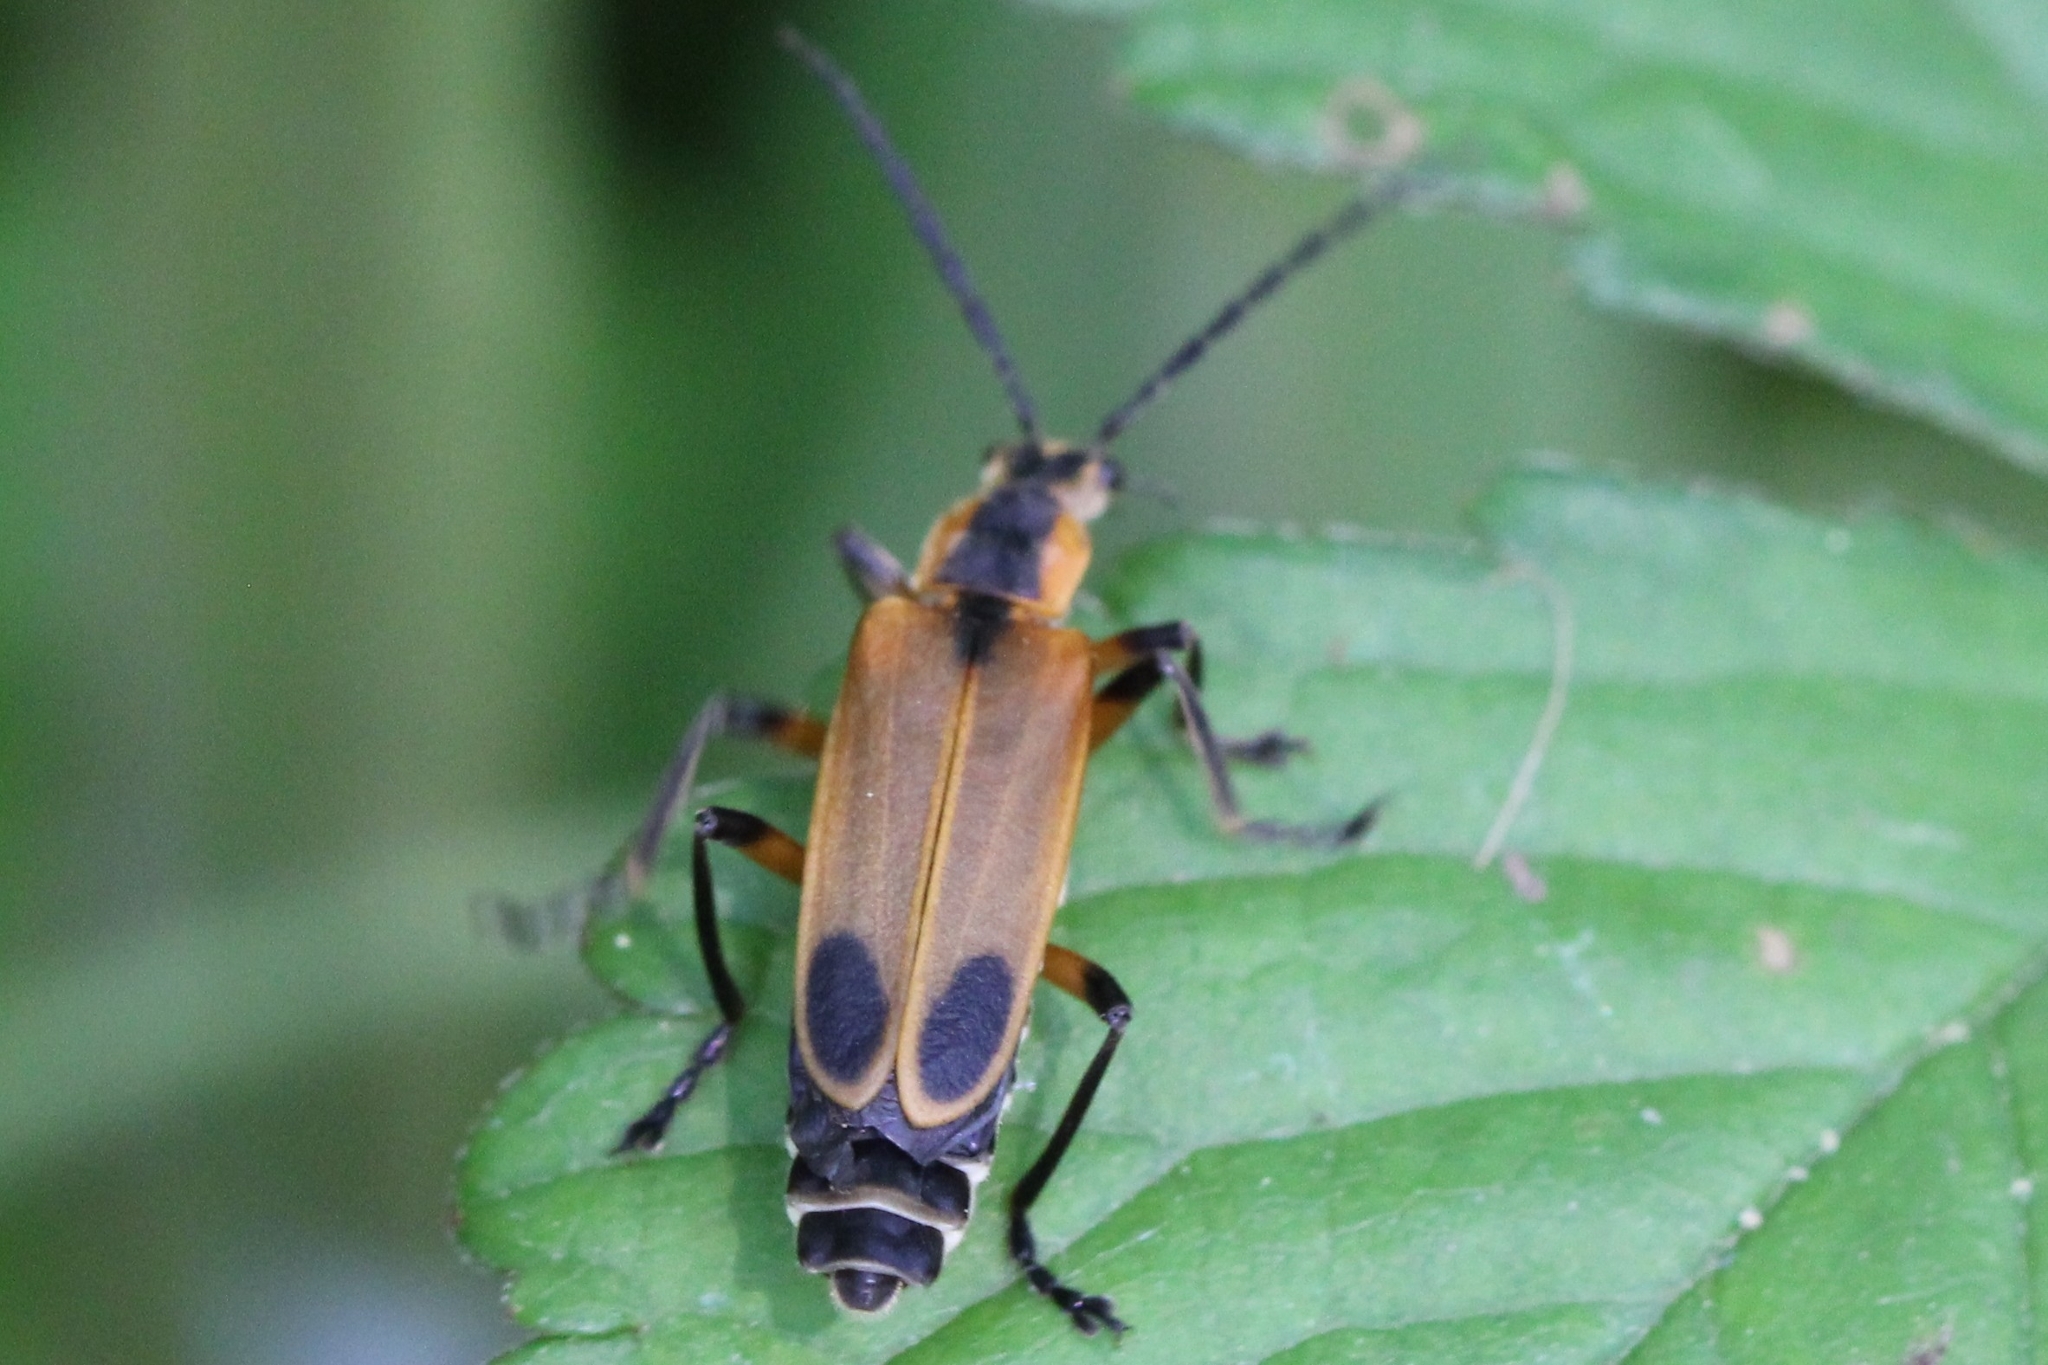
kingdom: Animalia
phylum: Arthropoda
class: Insecta
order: Coleoptera
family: Cantharidae
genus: Chauliognathus
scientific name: Chauliognathus marginatus
